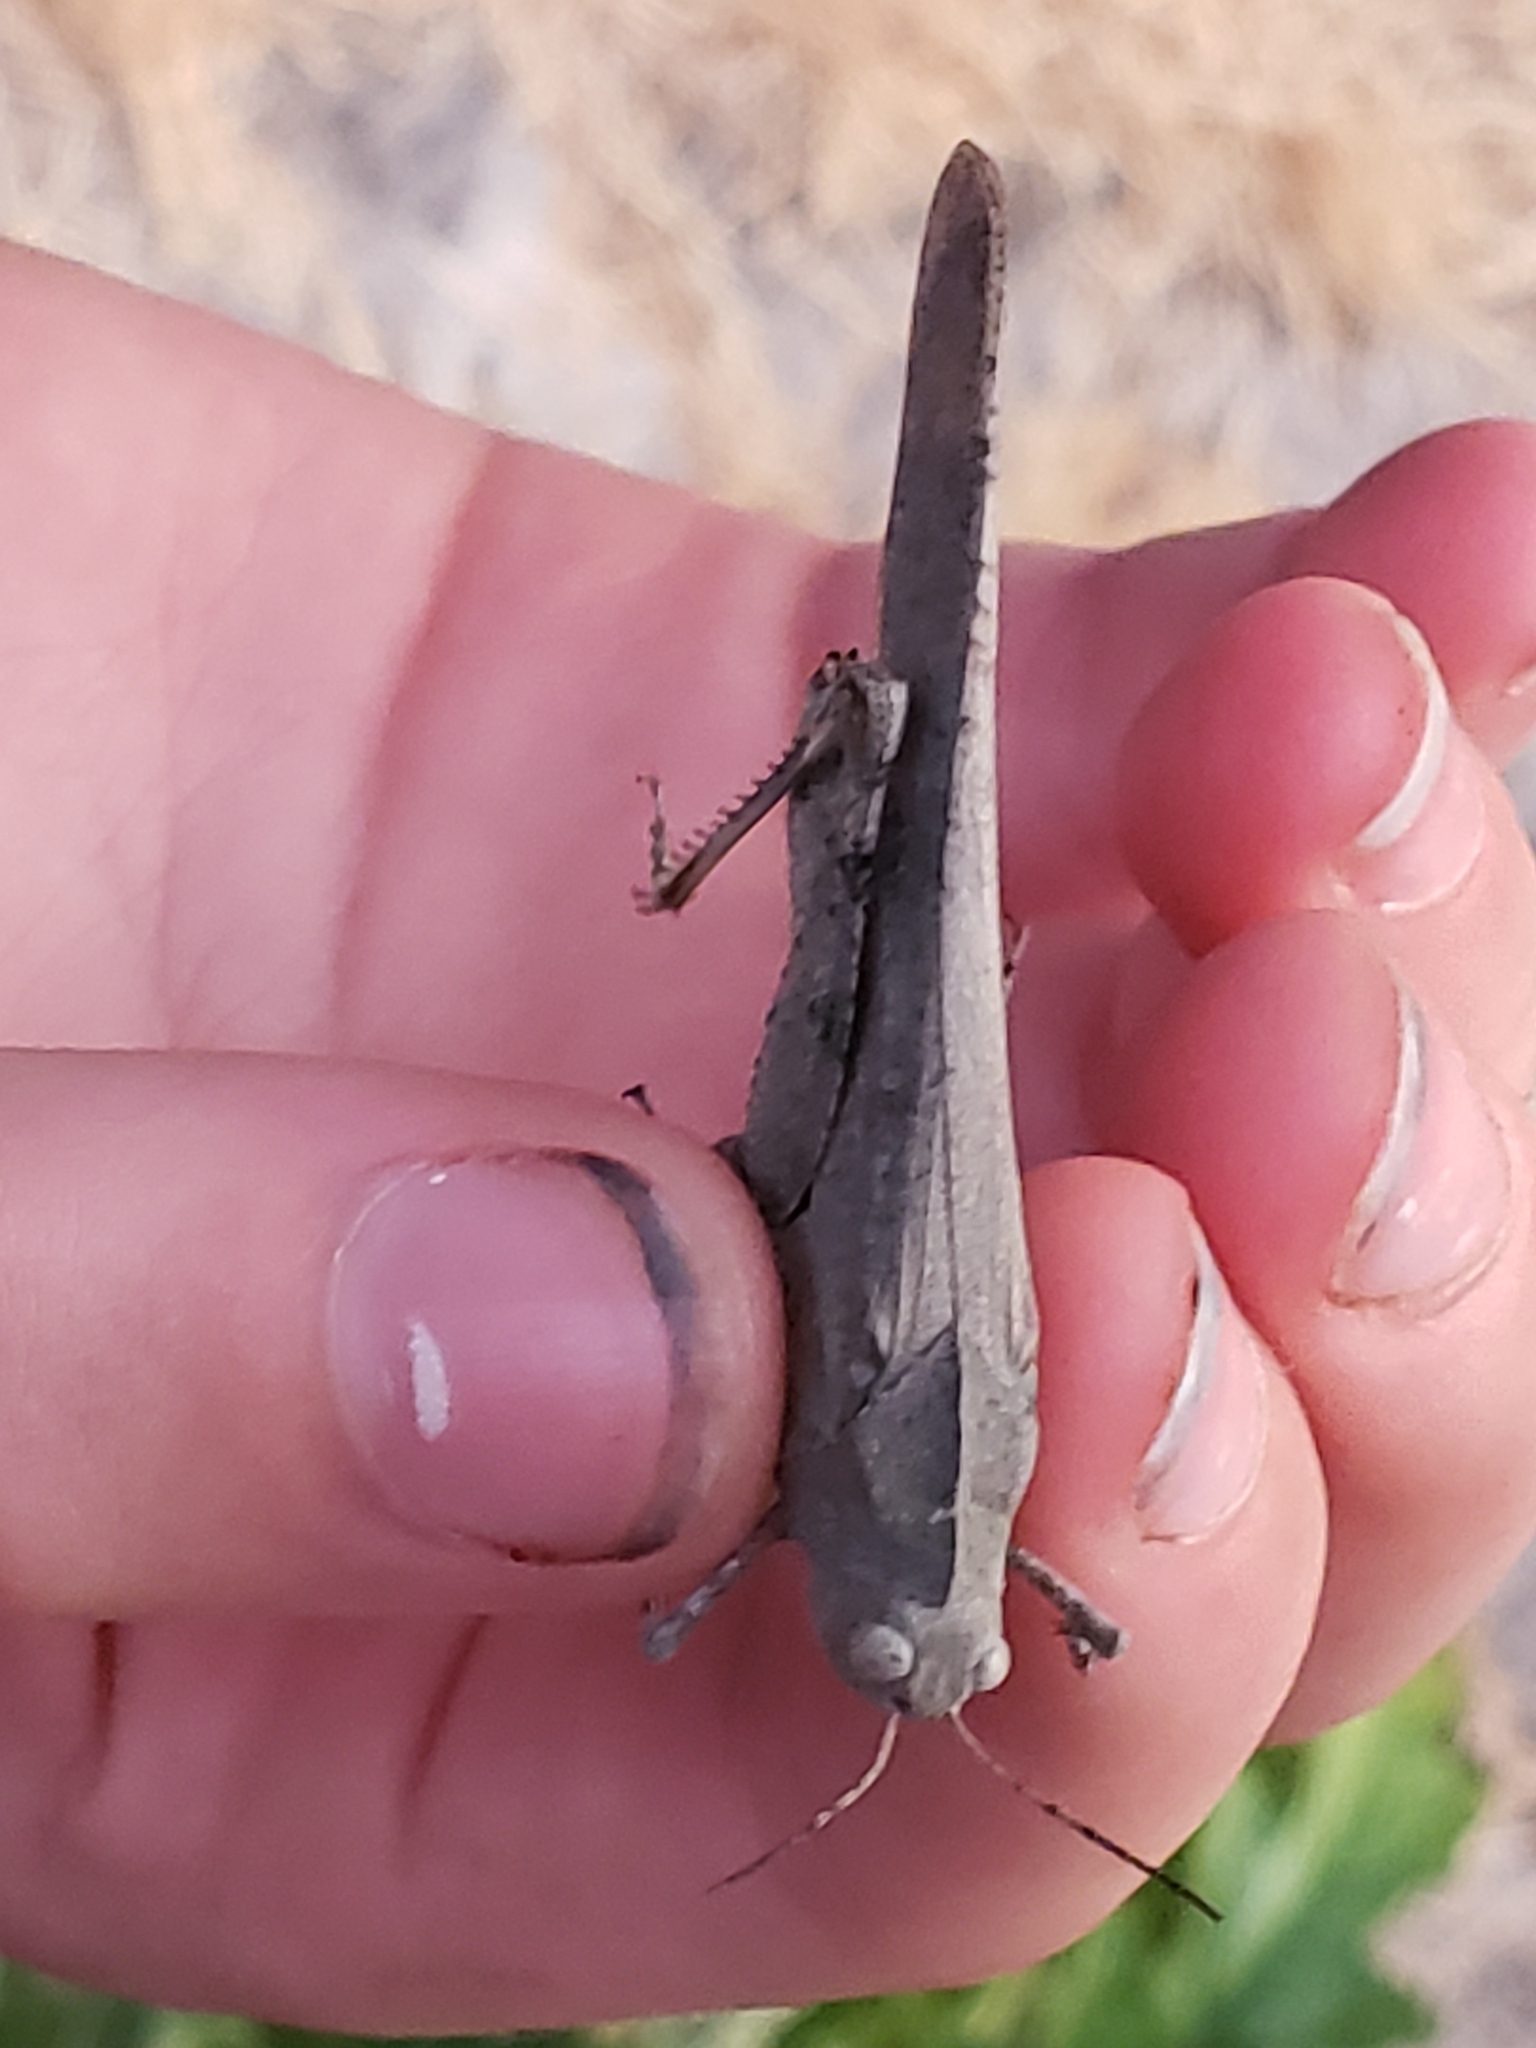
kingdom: Animalia
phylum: Arthropoda
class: Insecta
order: Orthoptera
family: Acrididae
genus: Dissosteira
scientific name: Dissosteira carolina
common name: Carolina grasshopper
